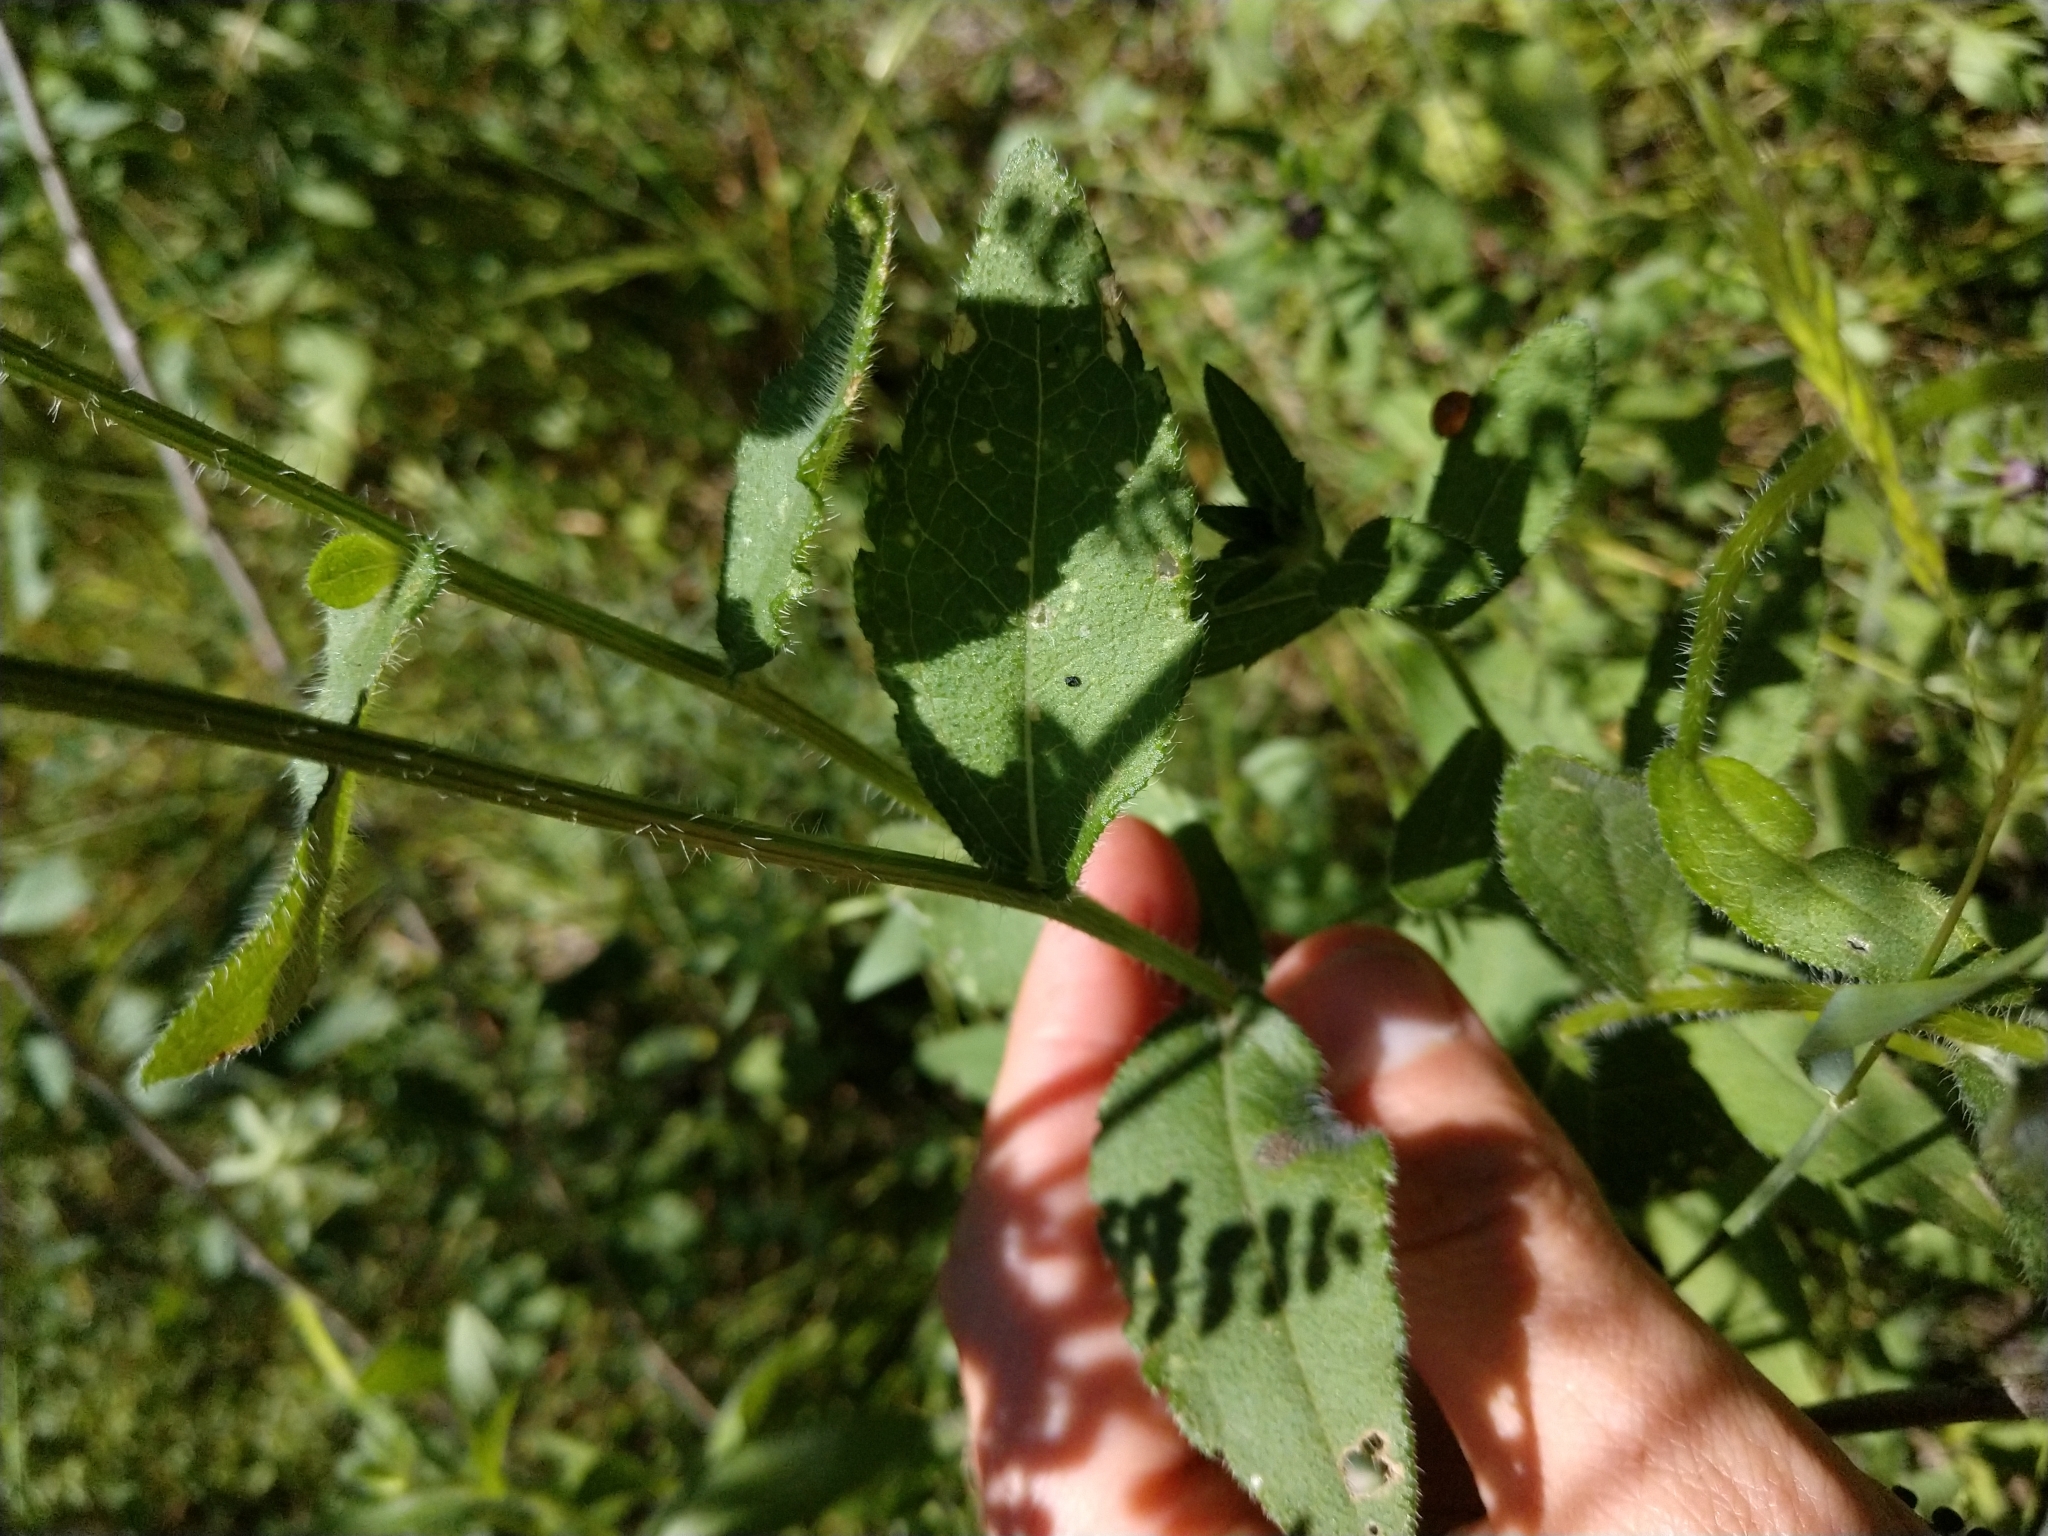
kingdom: Plantae
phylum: Tracheophyta
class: Magnoliopsida
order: Asterales
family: Asteraceae
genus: Rudbeckia
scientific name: Rudbeckia hirta
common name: Black-eyed-susan
